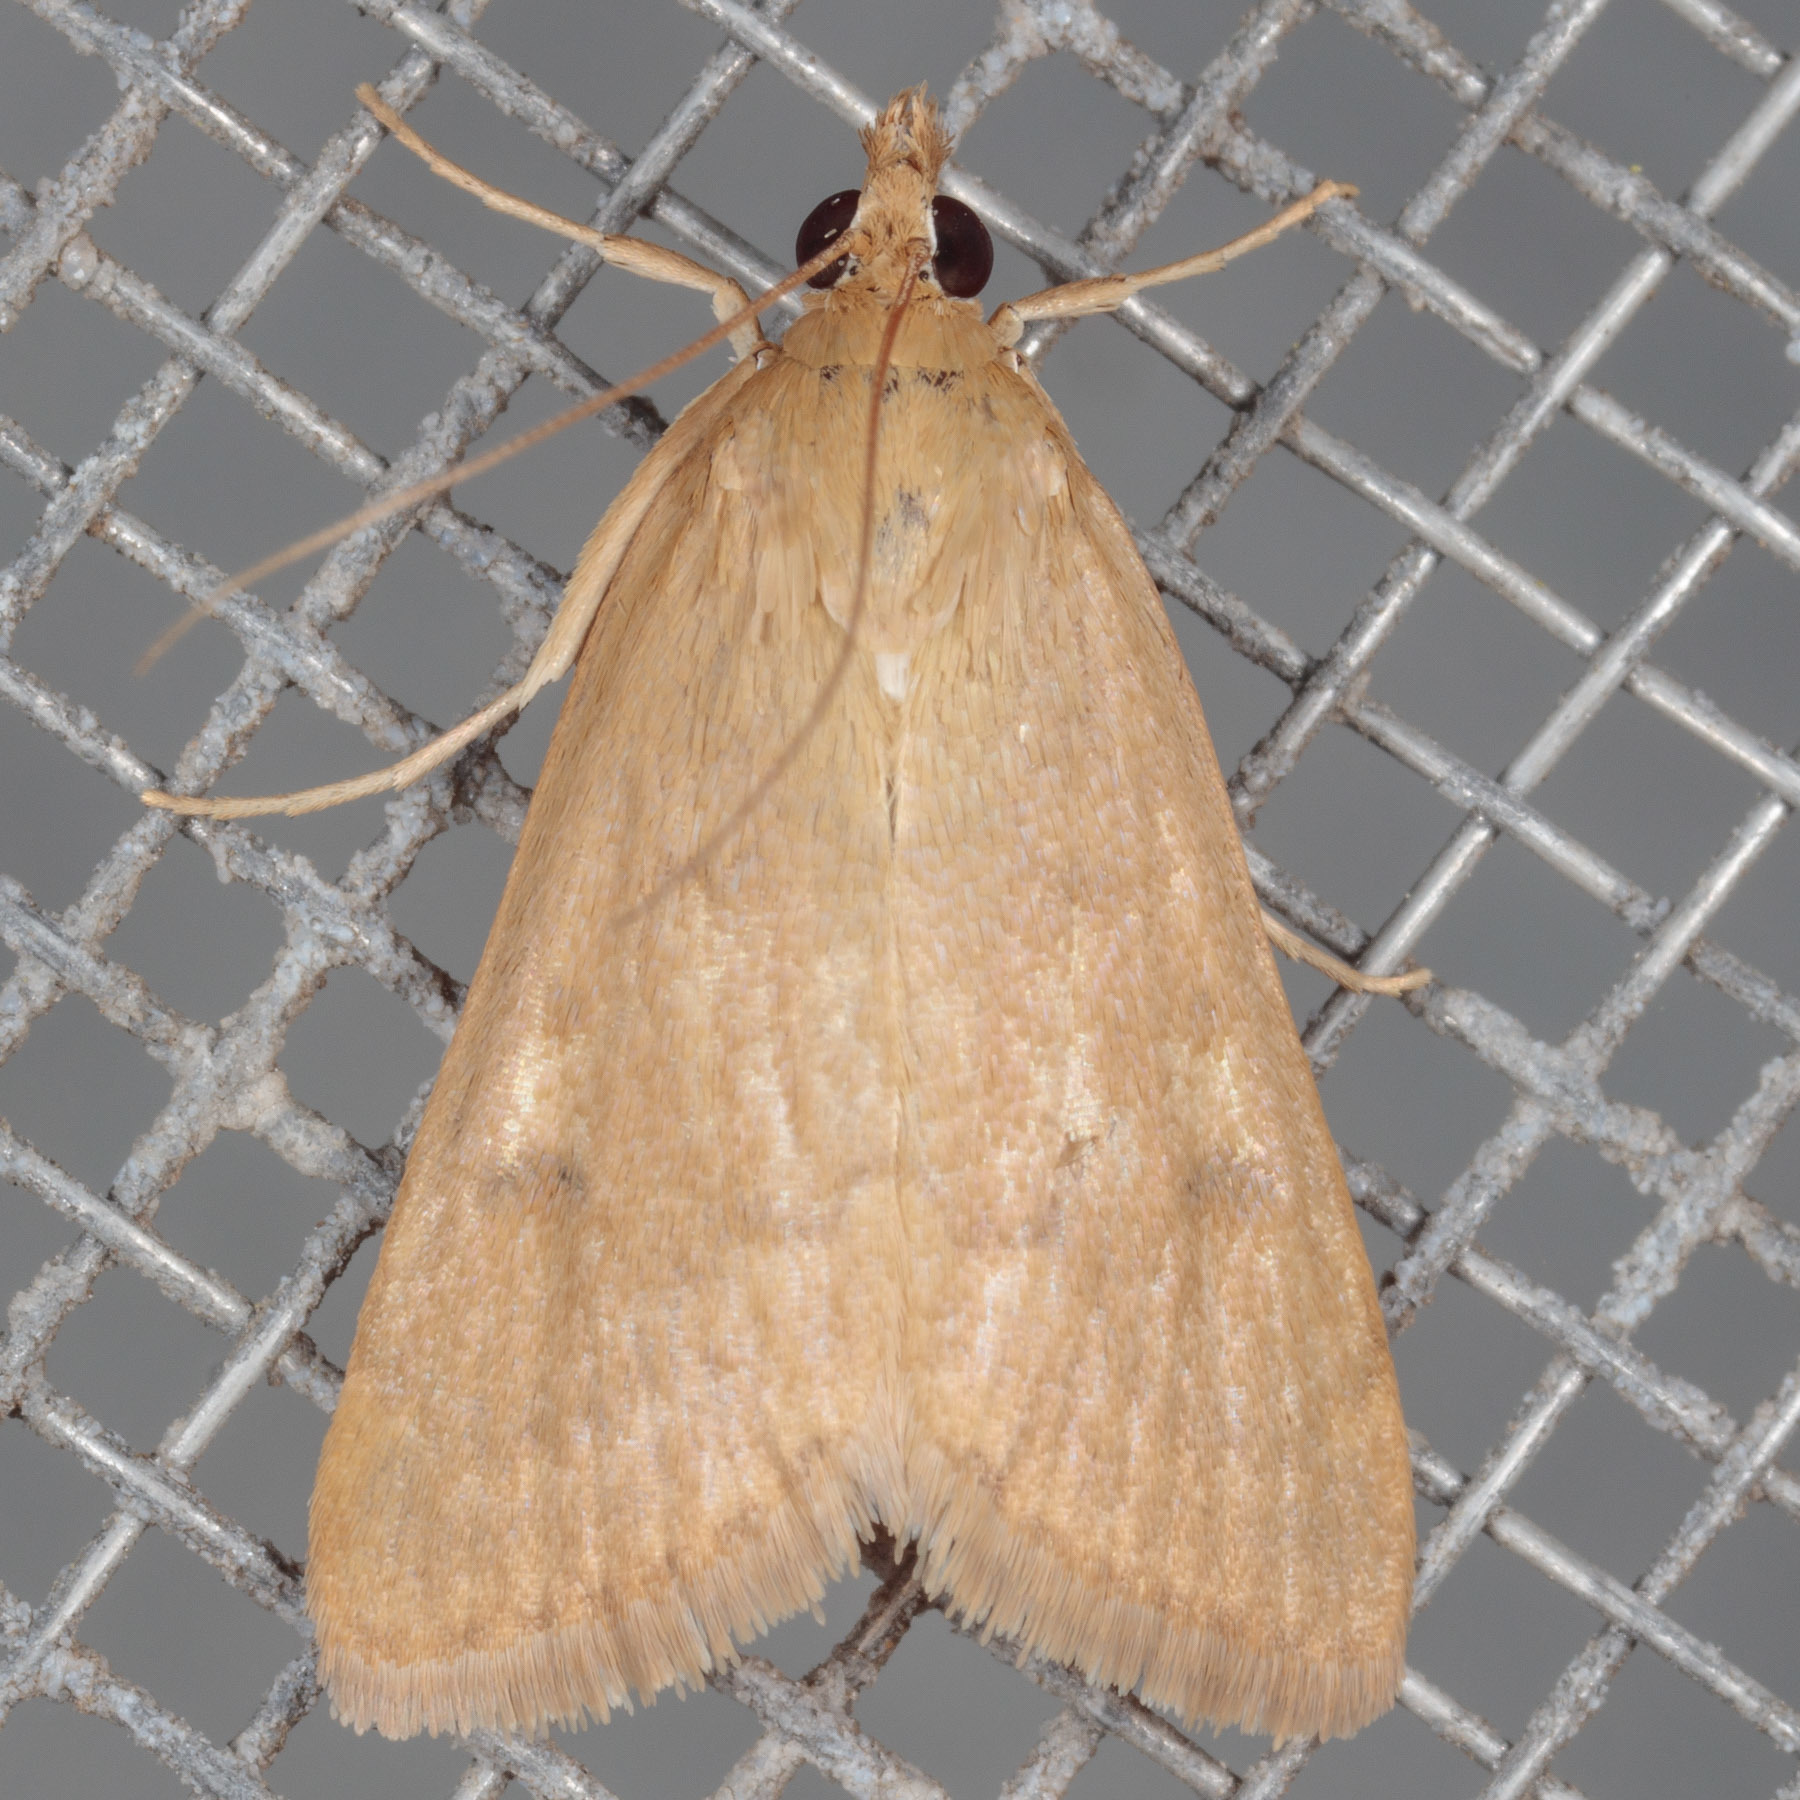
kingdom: Animalia
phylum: Arthropoda
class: Insecta
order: Lepidoptera
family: Crambidae
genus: Achyra
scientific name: Achyra rantalis
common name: Garden webworm
